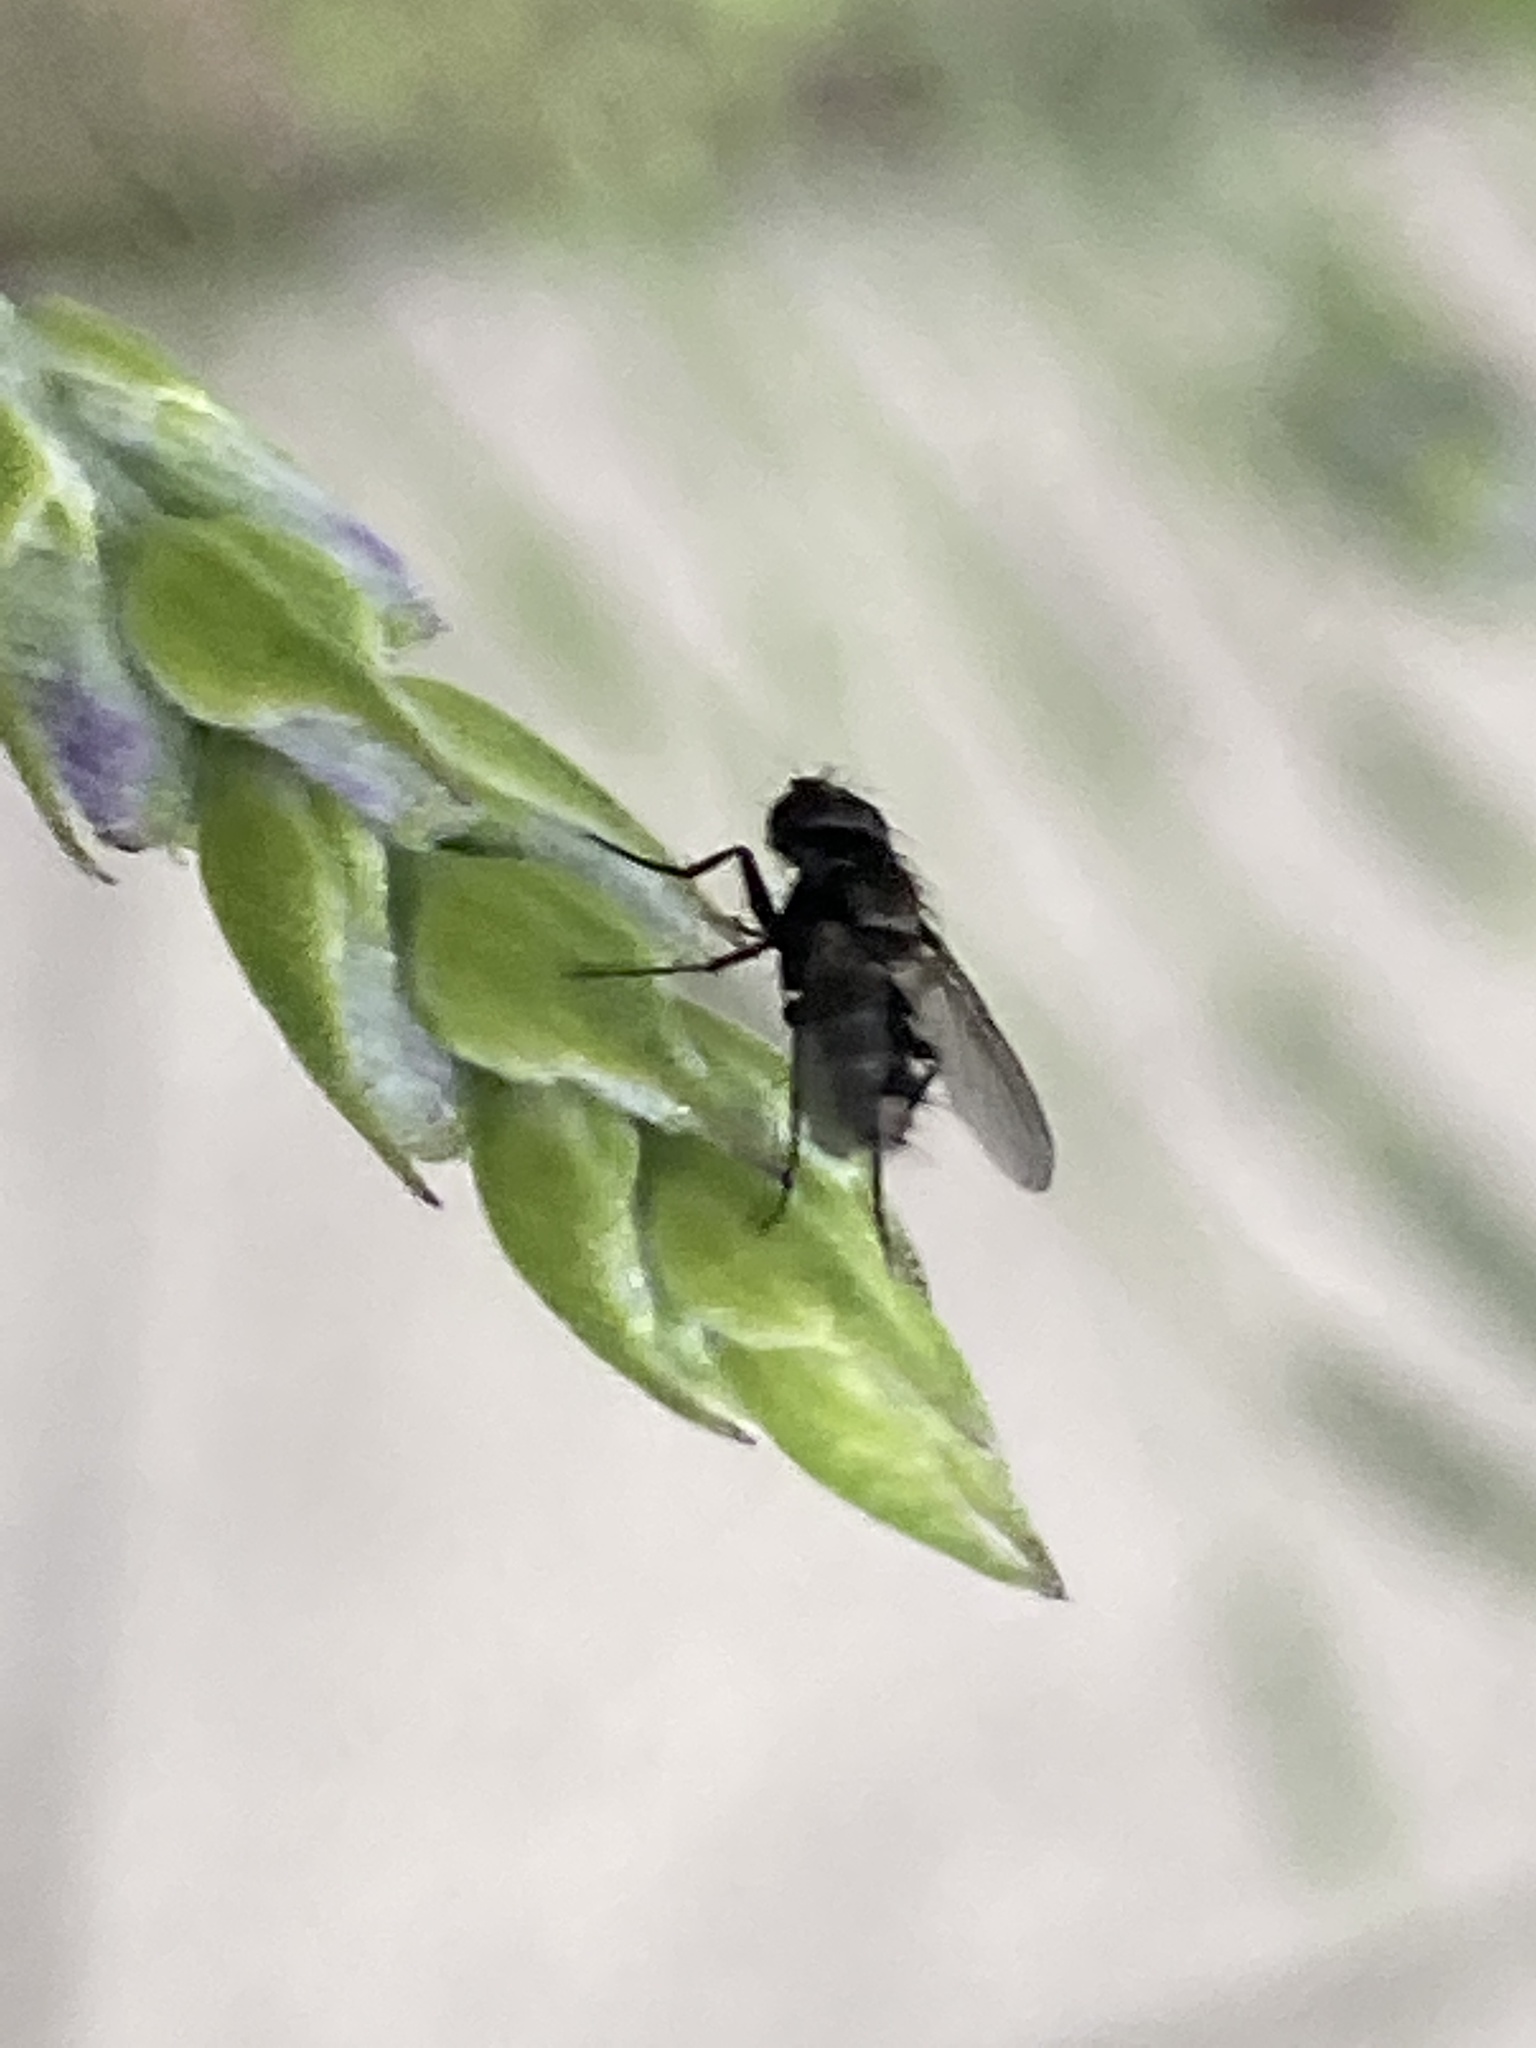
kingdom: Animalia
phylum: Arthropoda
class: Insecta
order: Diptera
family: Calliphoridae
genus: Rhinophora
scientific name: Rhinophora lepida
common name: Pouting woodlouse-fly
